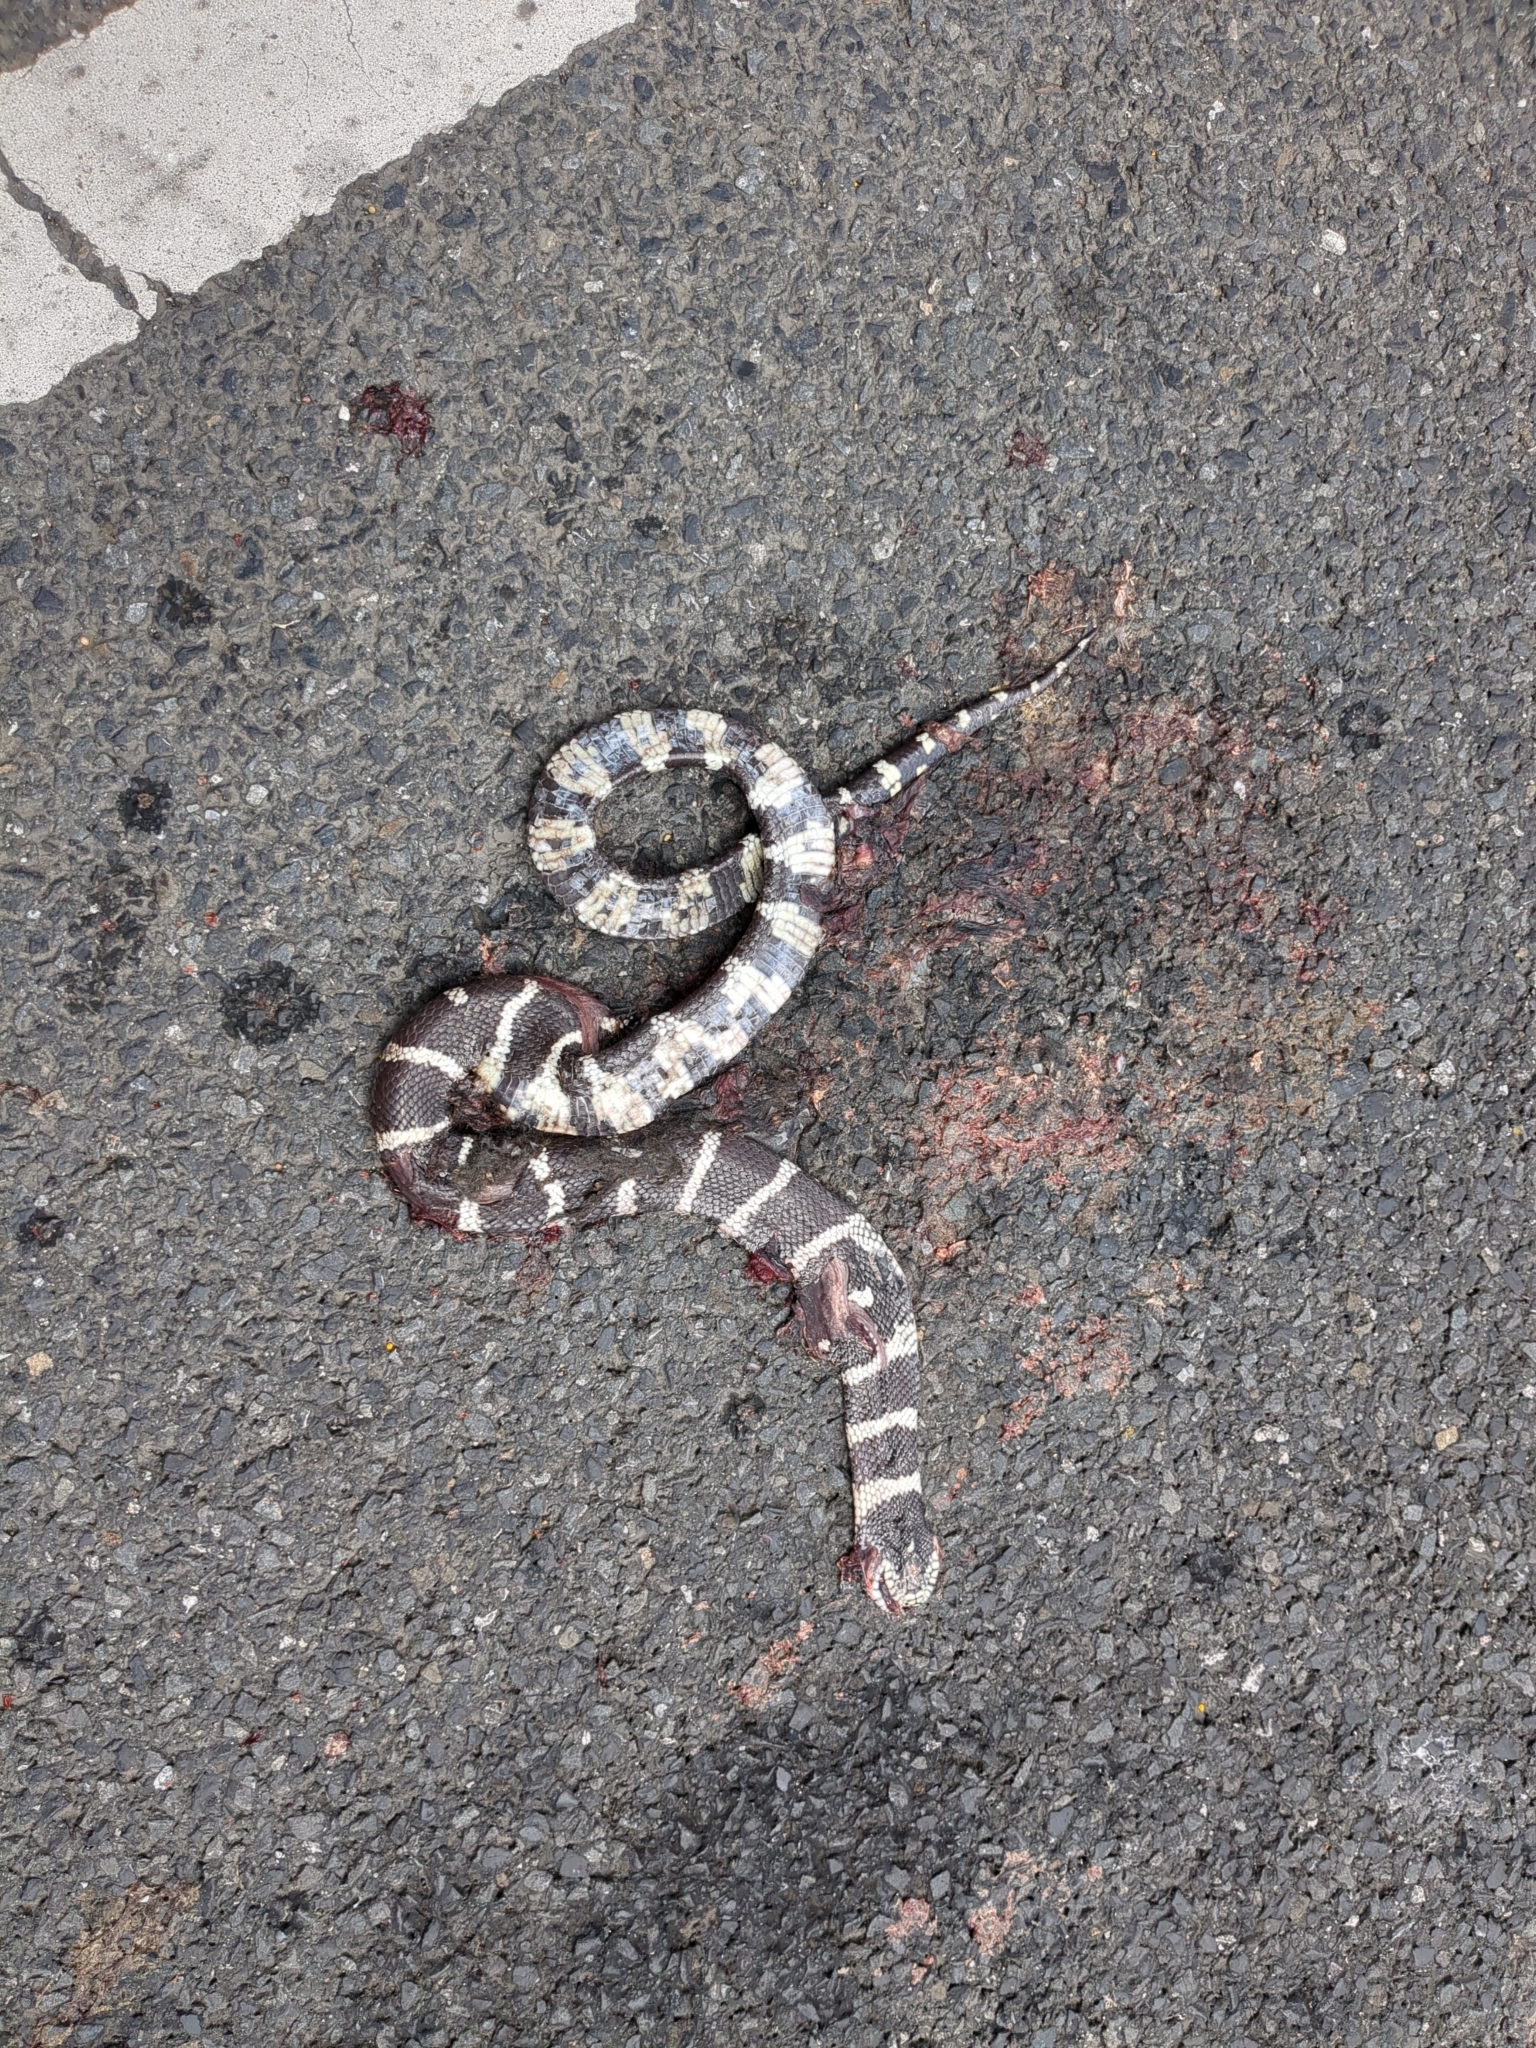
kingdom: Animalia
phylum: Chordata
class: Squamata
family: Colubridae
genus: Lampropeltis
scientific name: Lampropeltis californiae
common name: California kingsnake
